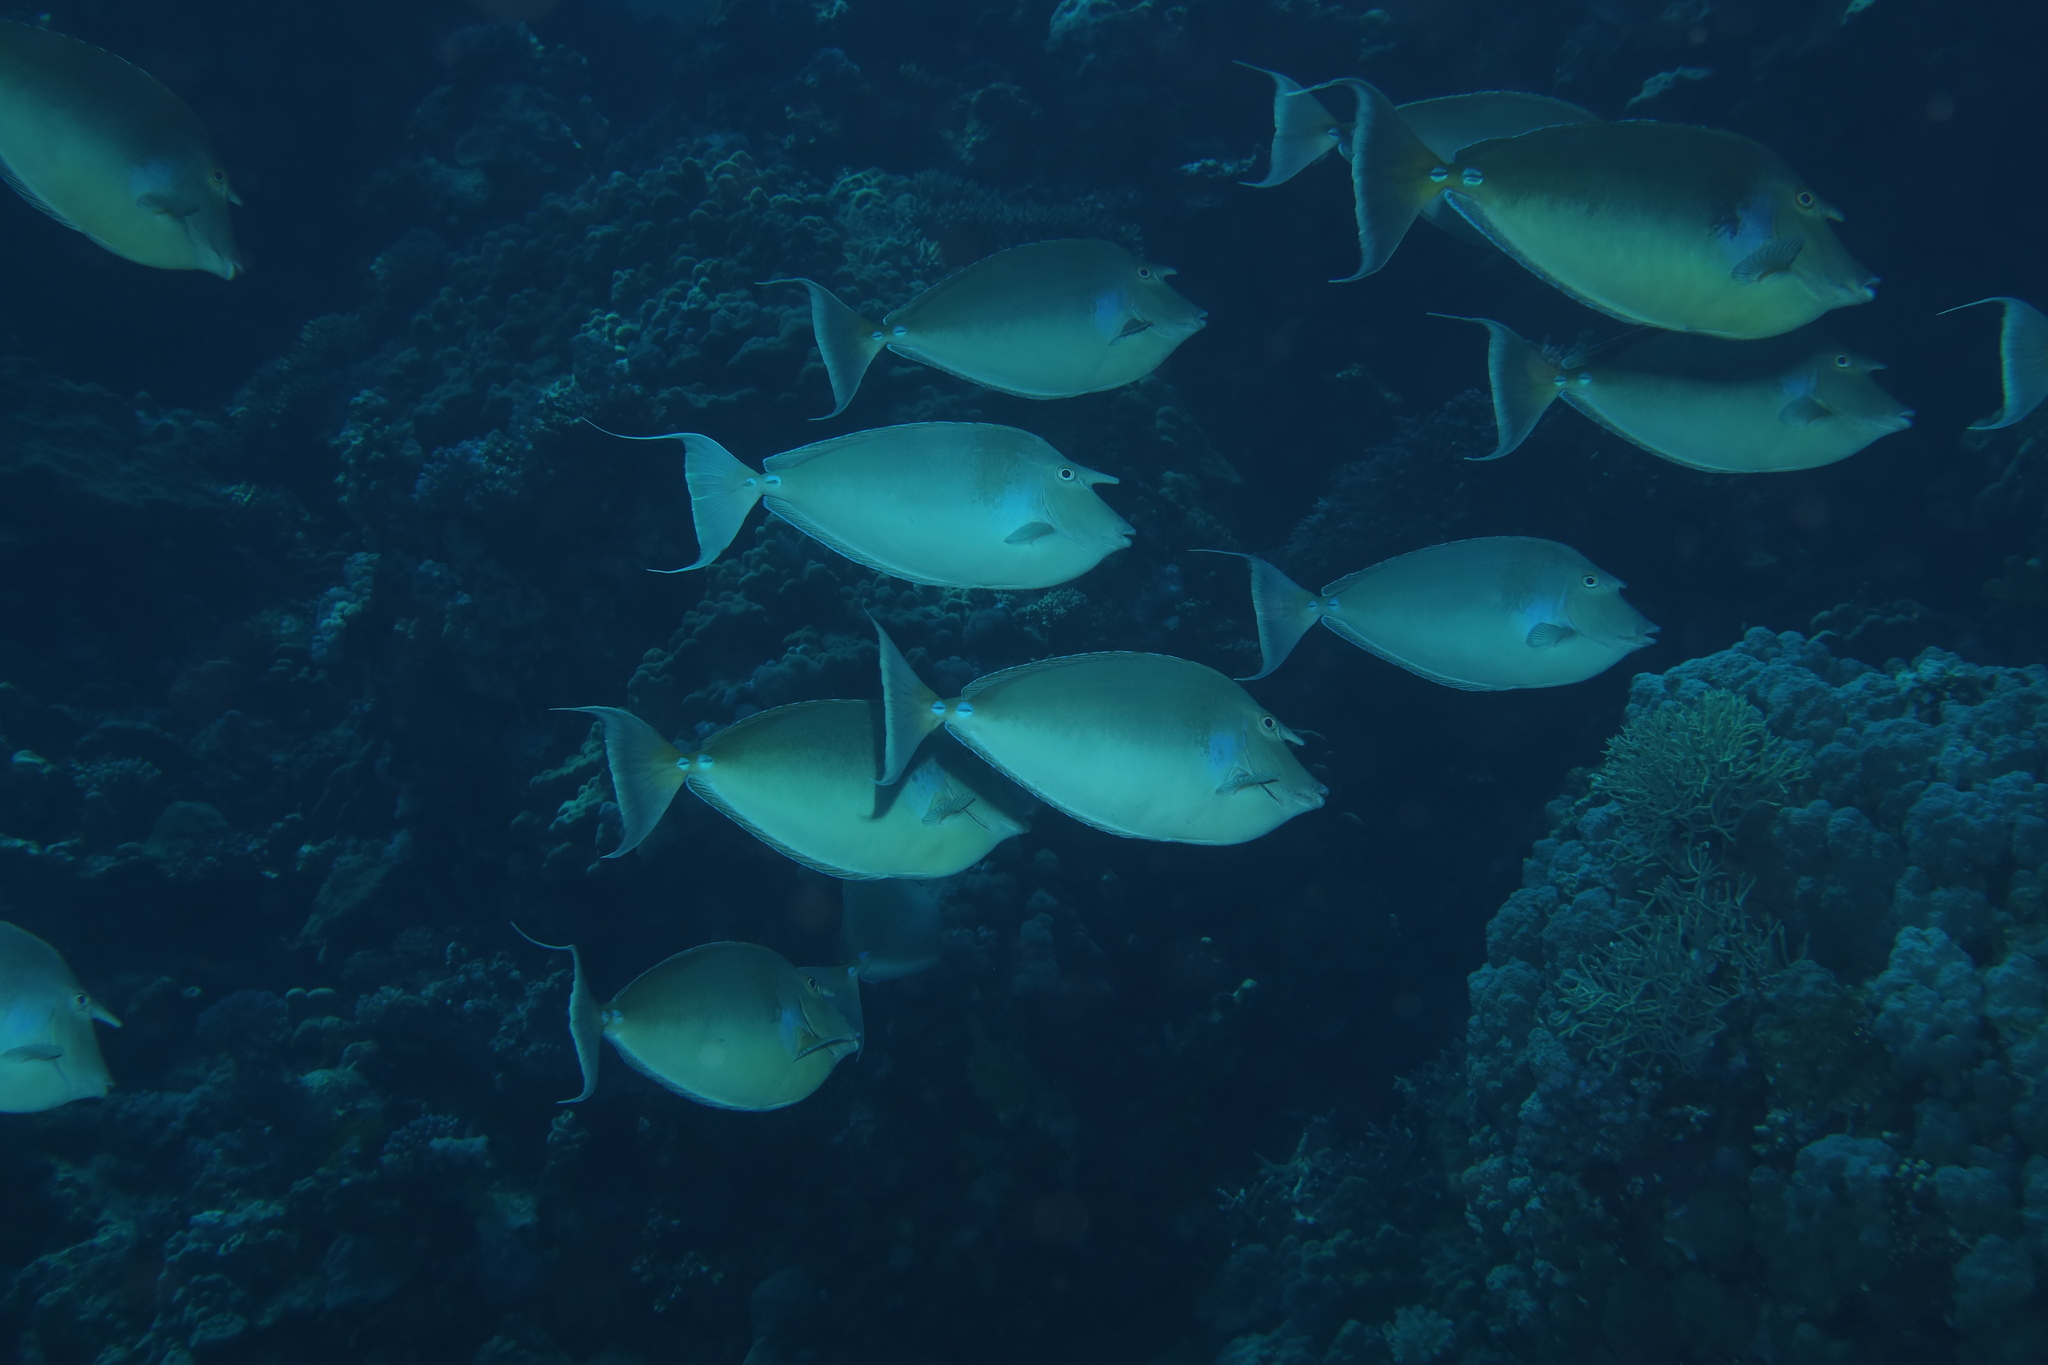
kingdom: Animalia
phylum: Chordata
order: Perciformes
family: Acanthuridae
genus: Naso
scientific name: Naso unicornis
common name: Bluespine unicornfish
